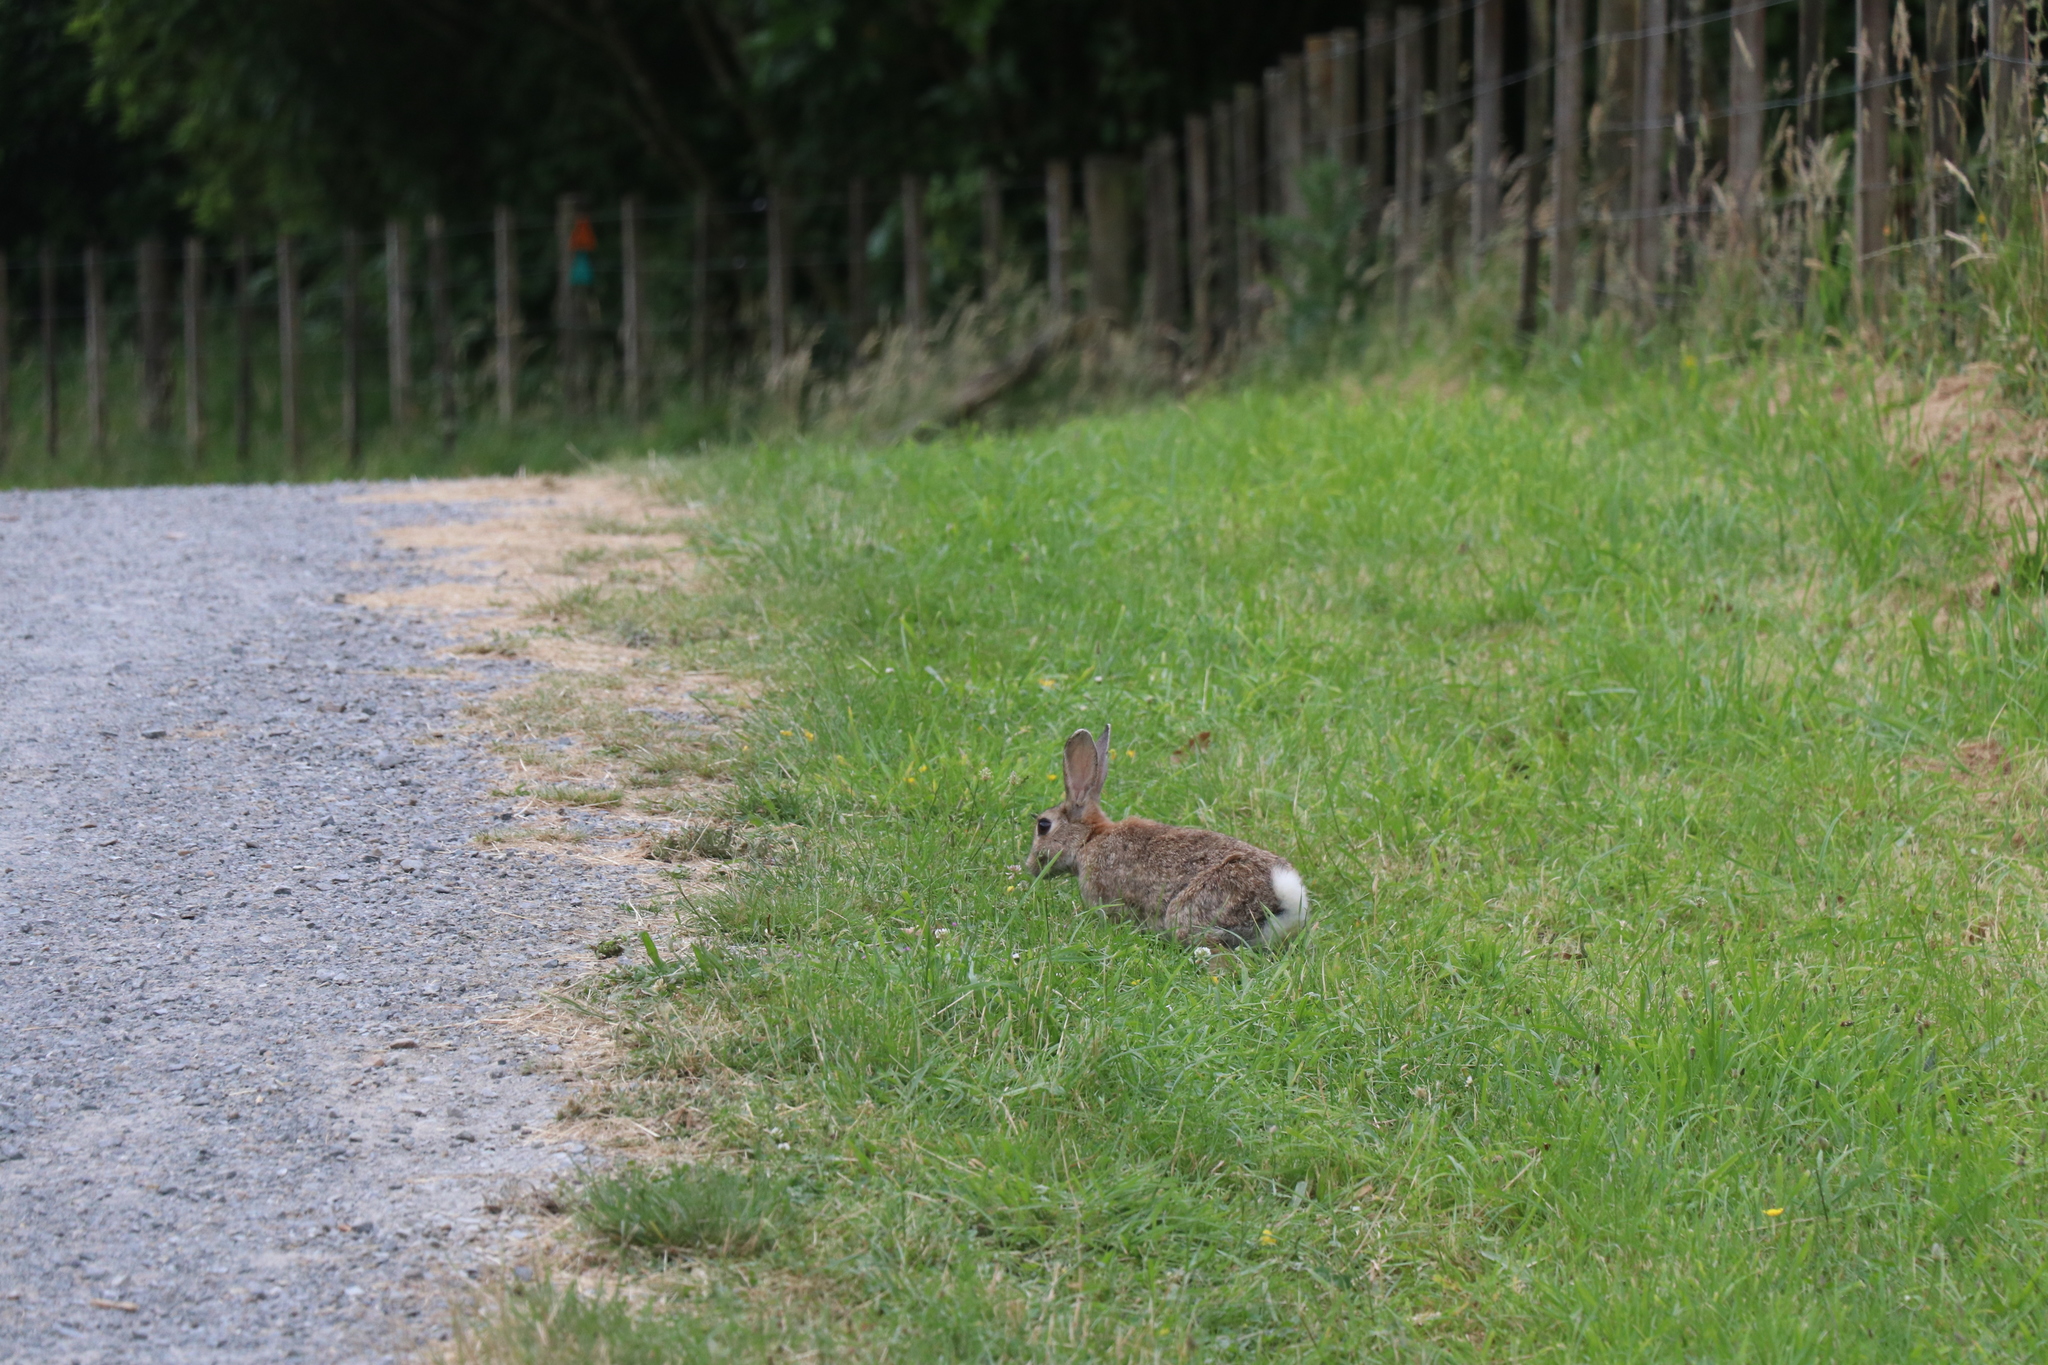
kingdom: Animalia
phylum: Chordata
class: Mammalia
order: Lagomorpha
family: Leporidae
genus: Oryctolagus
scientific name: Oryctolagus cuniculus
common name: European rabbit
